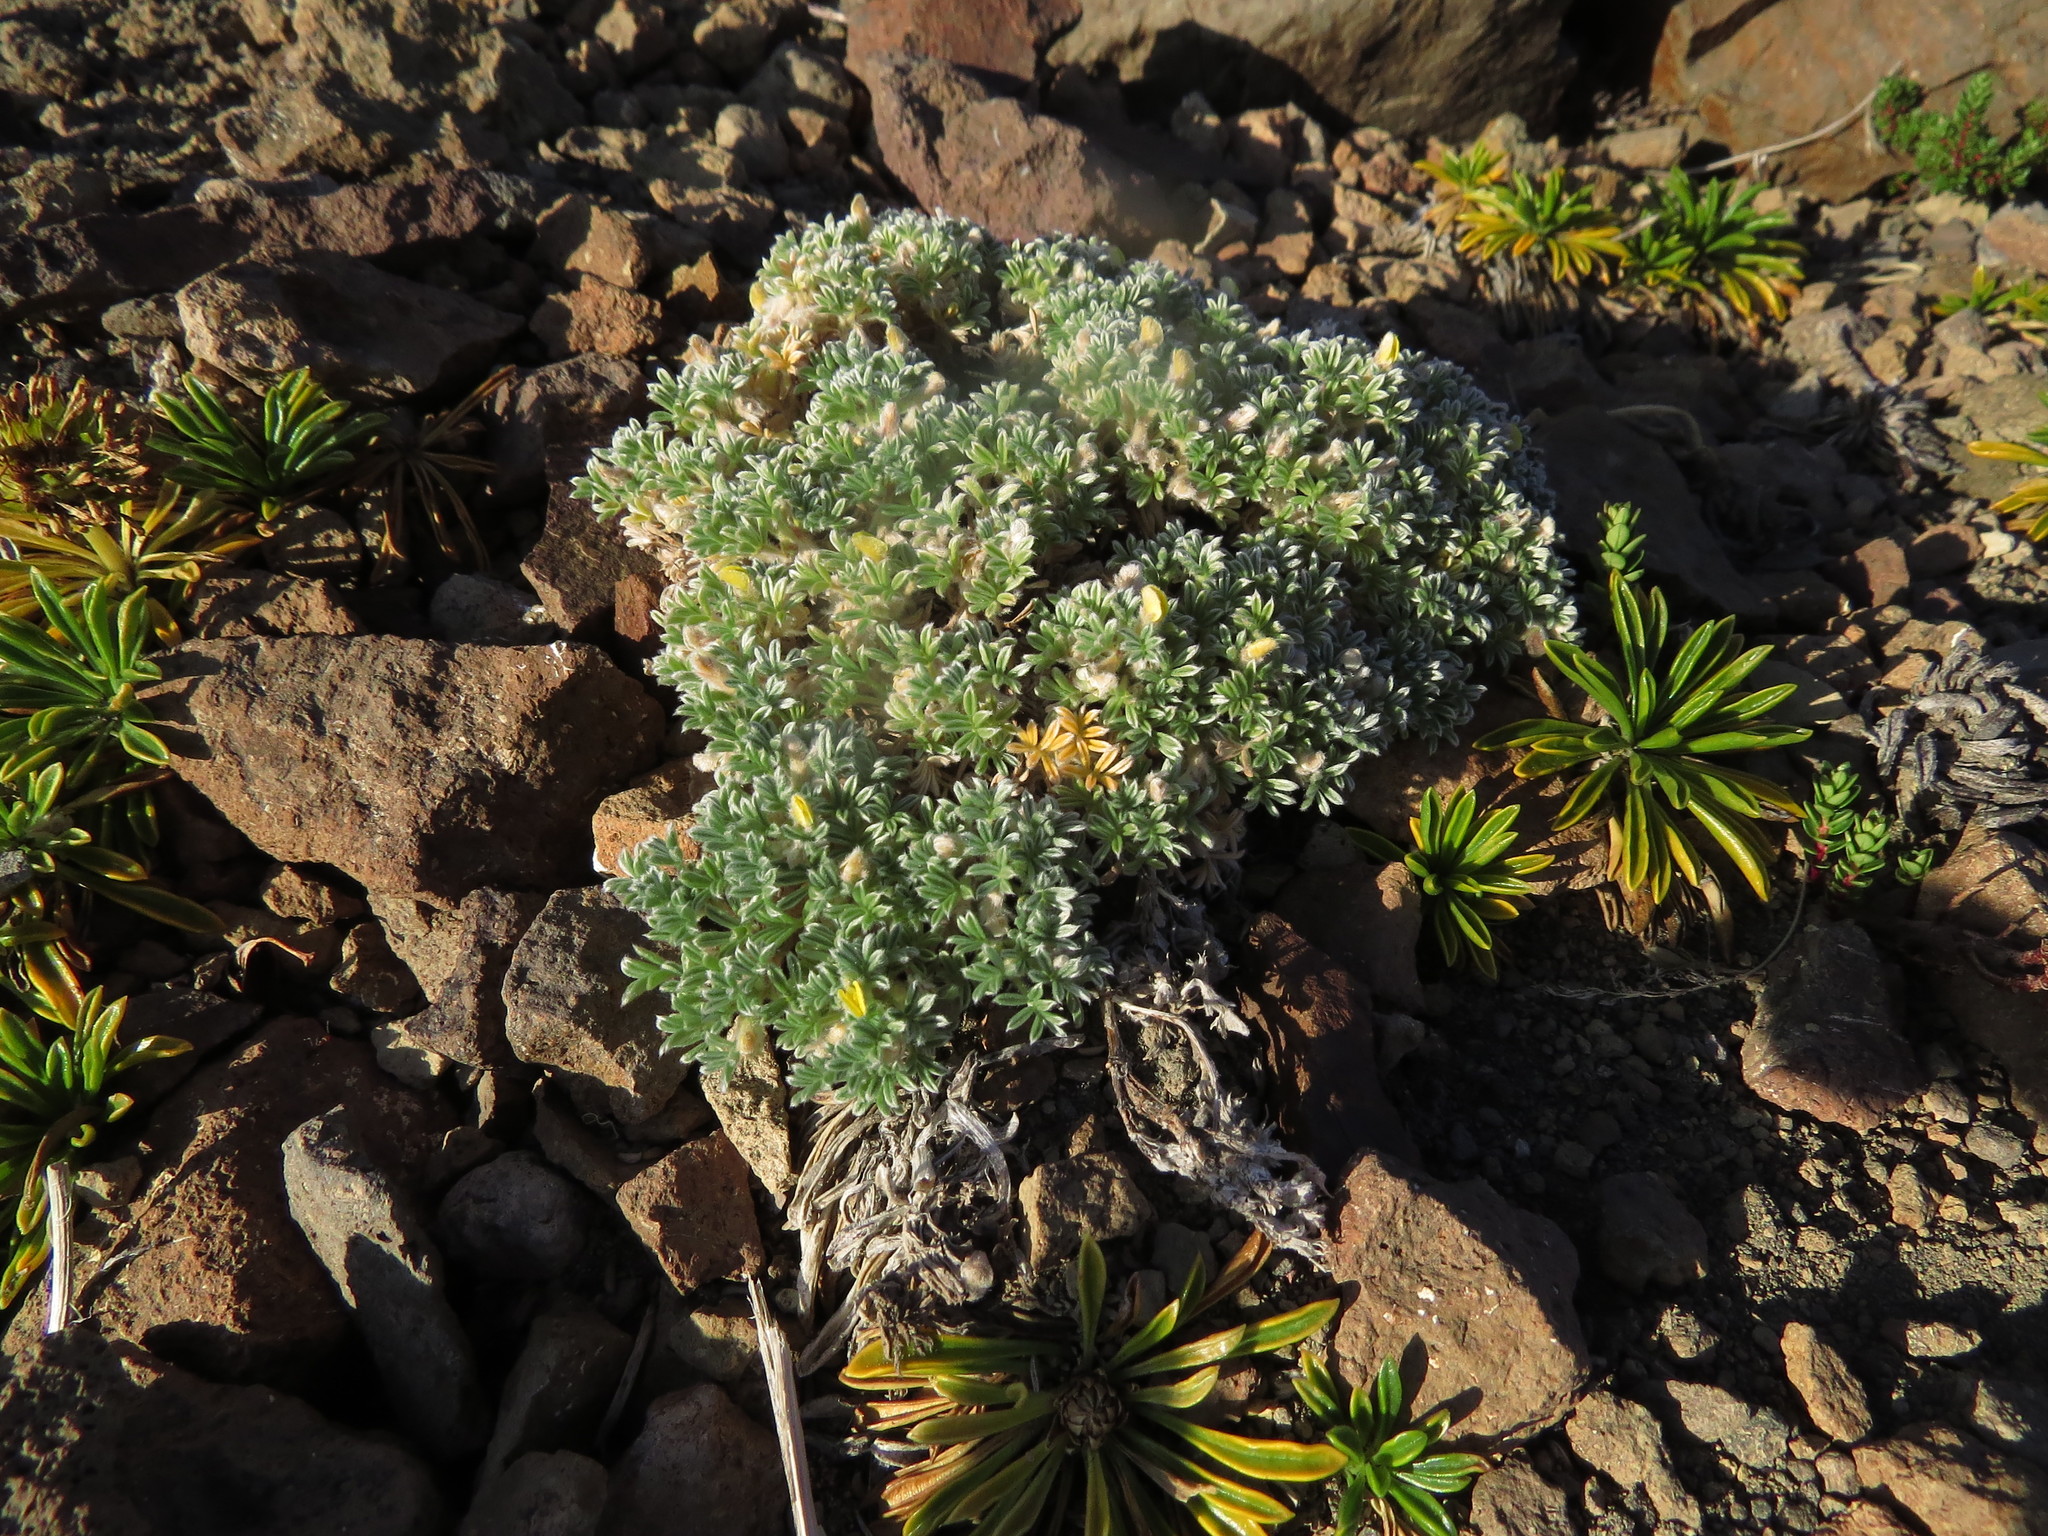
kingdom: Plantae
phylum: Tracheophyta
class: Magnoliopsida
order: Fabales
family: Fabaceae
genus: Adesmia
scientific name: Adesmia glomerula
